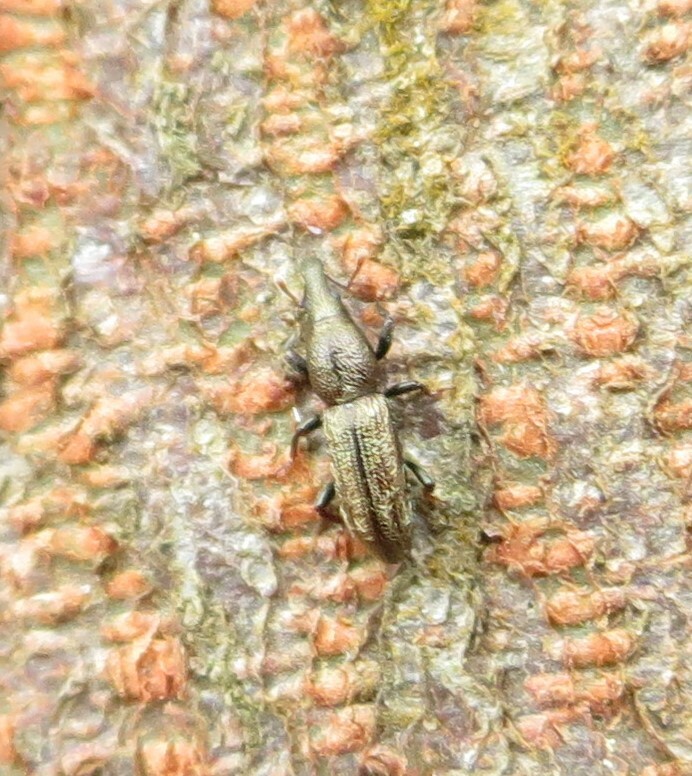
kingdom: Animalia
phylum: Arthropoda
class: Insecta
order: Coleoptera
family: Curculionidae
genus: Sericotrogus
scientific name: Sericotrogus subaenescens
